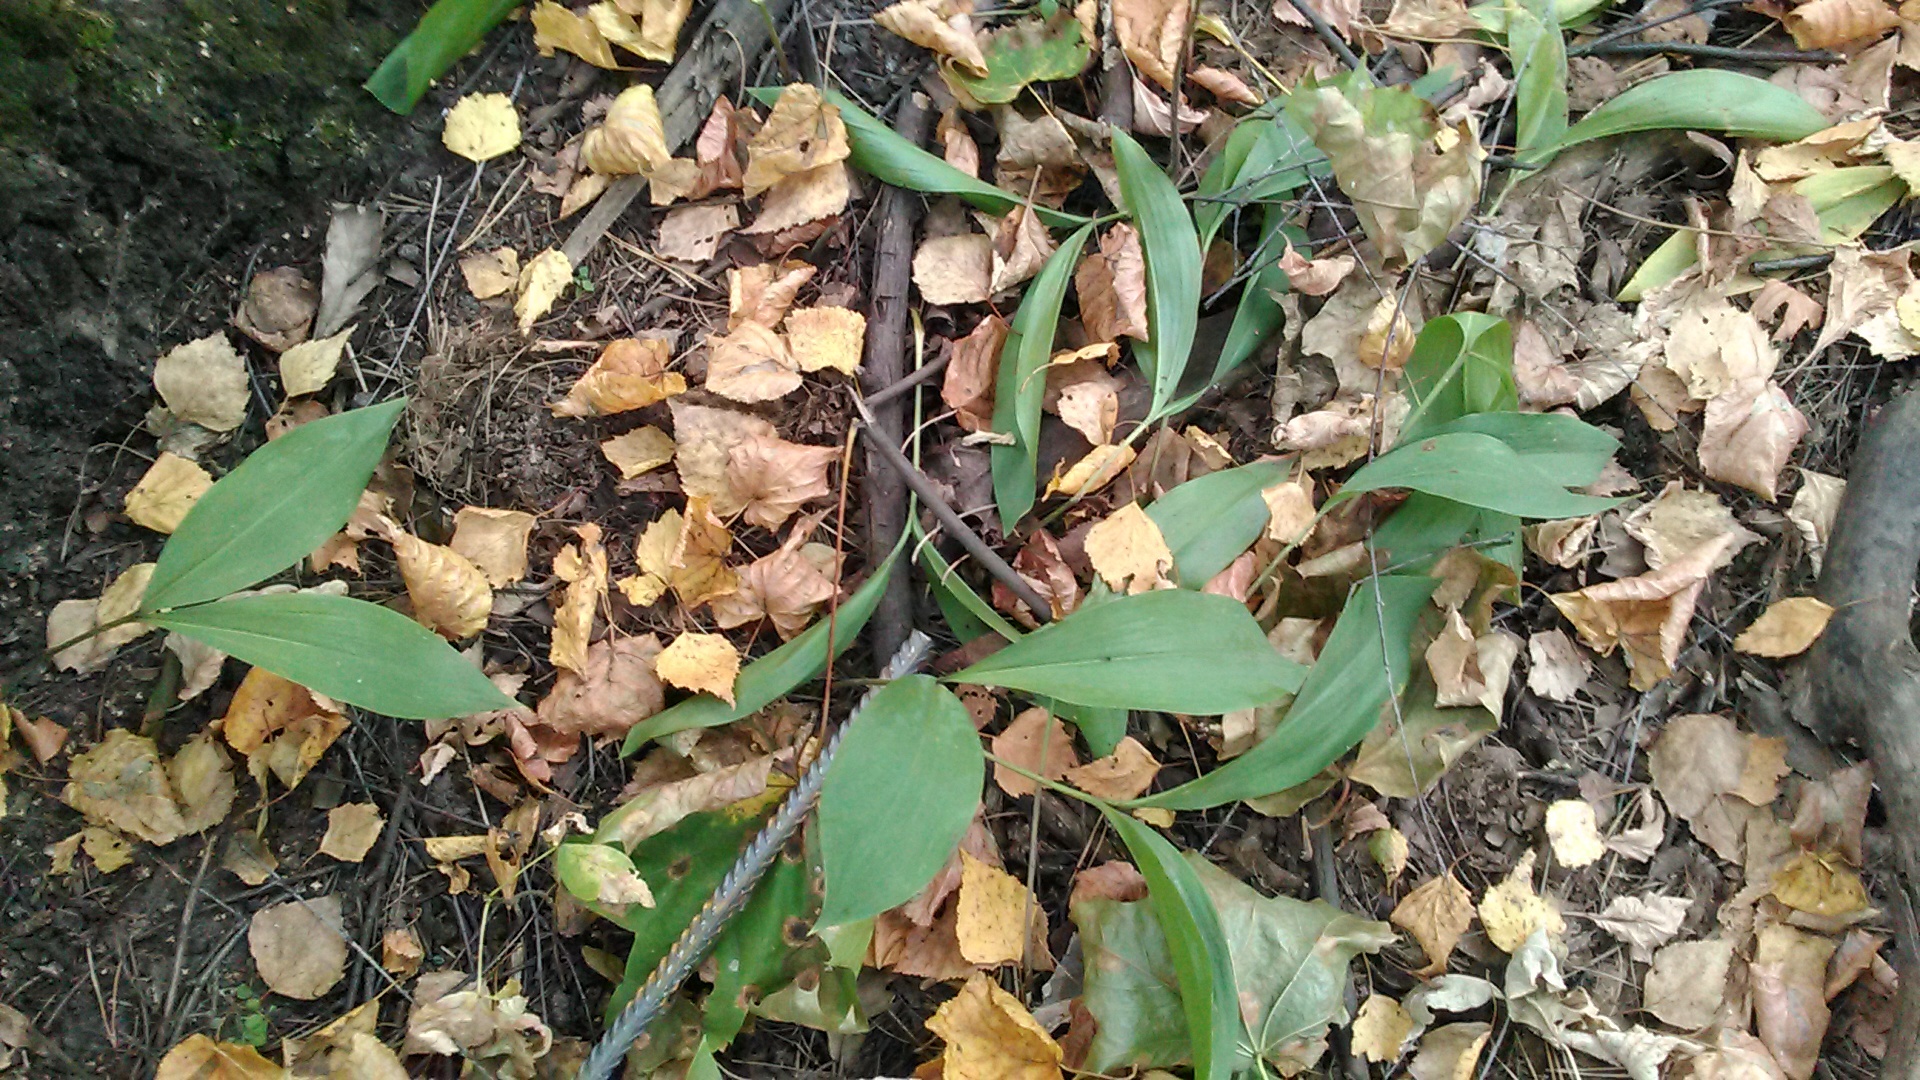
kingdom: Plantae
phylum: Tracheophyta
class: Liliopsida
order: Asparagales
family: Asparagaceae
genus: Convallaria
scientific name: Convallaria majalis
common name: Lily-of-the-valley
